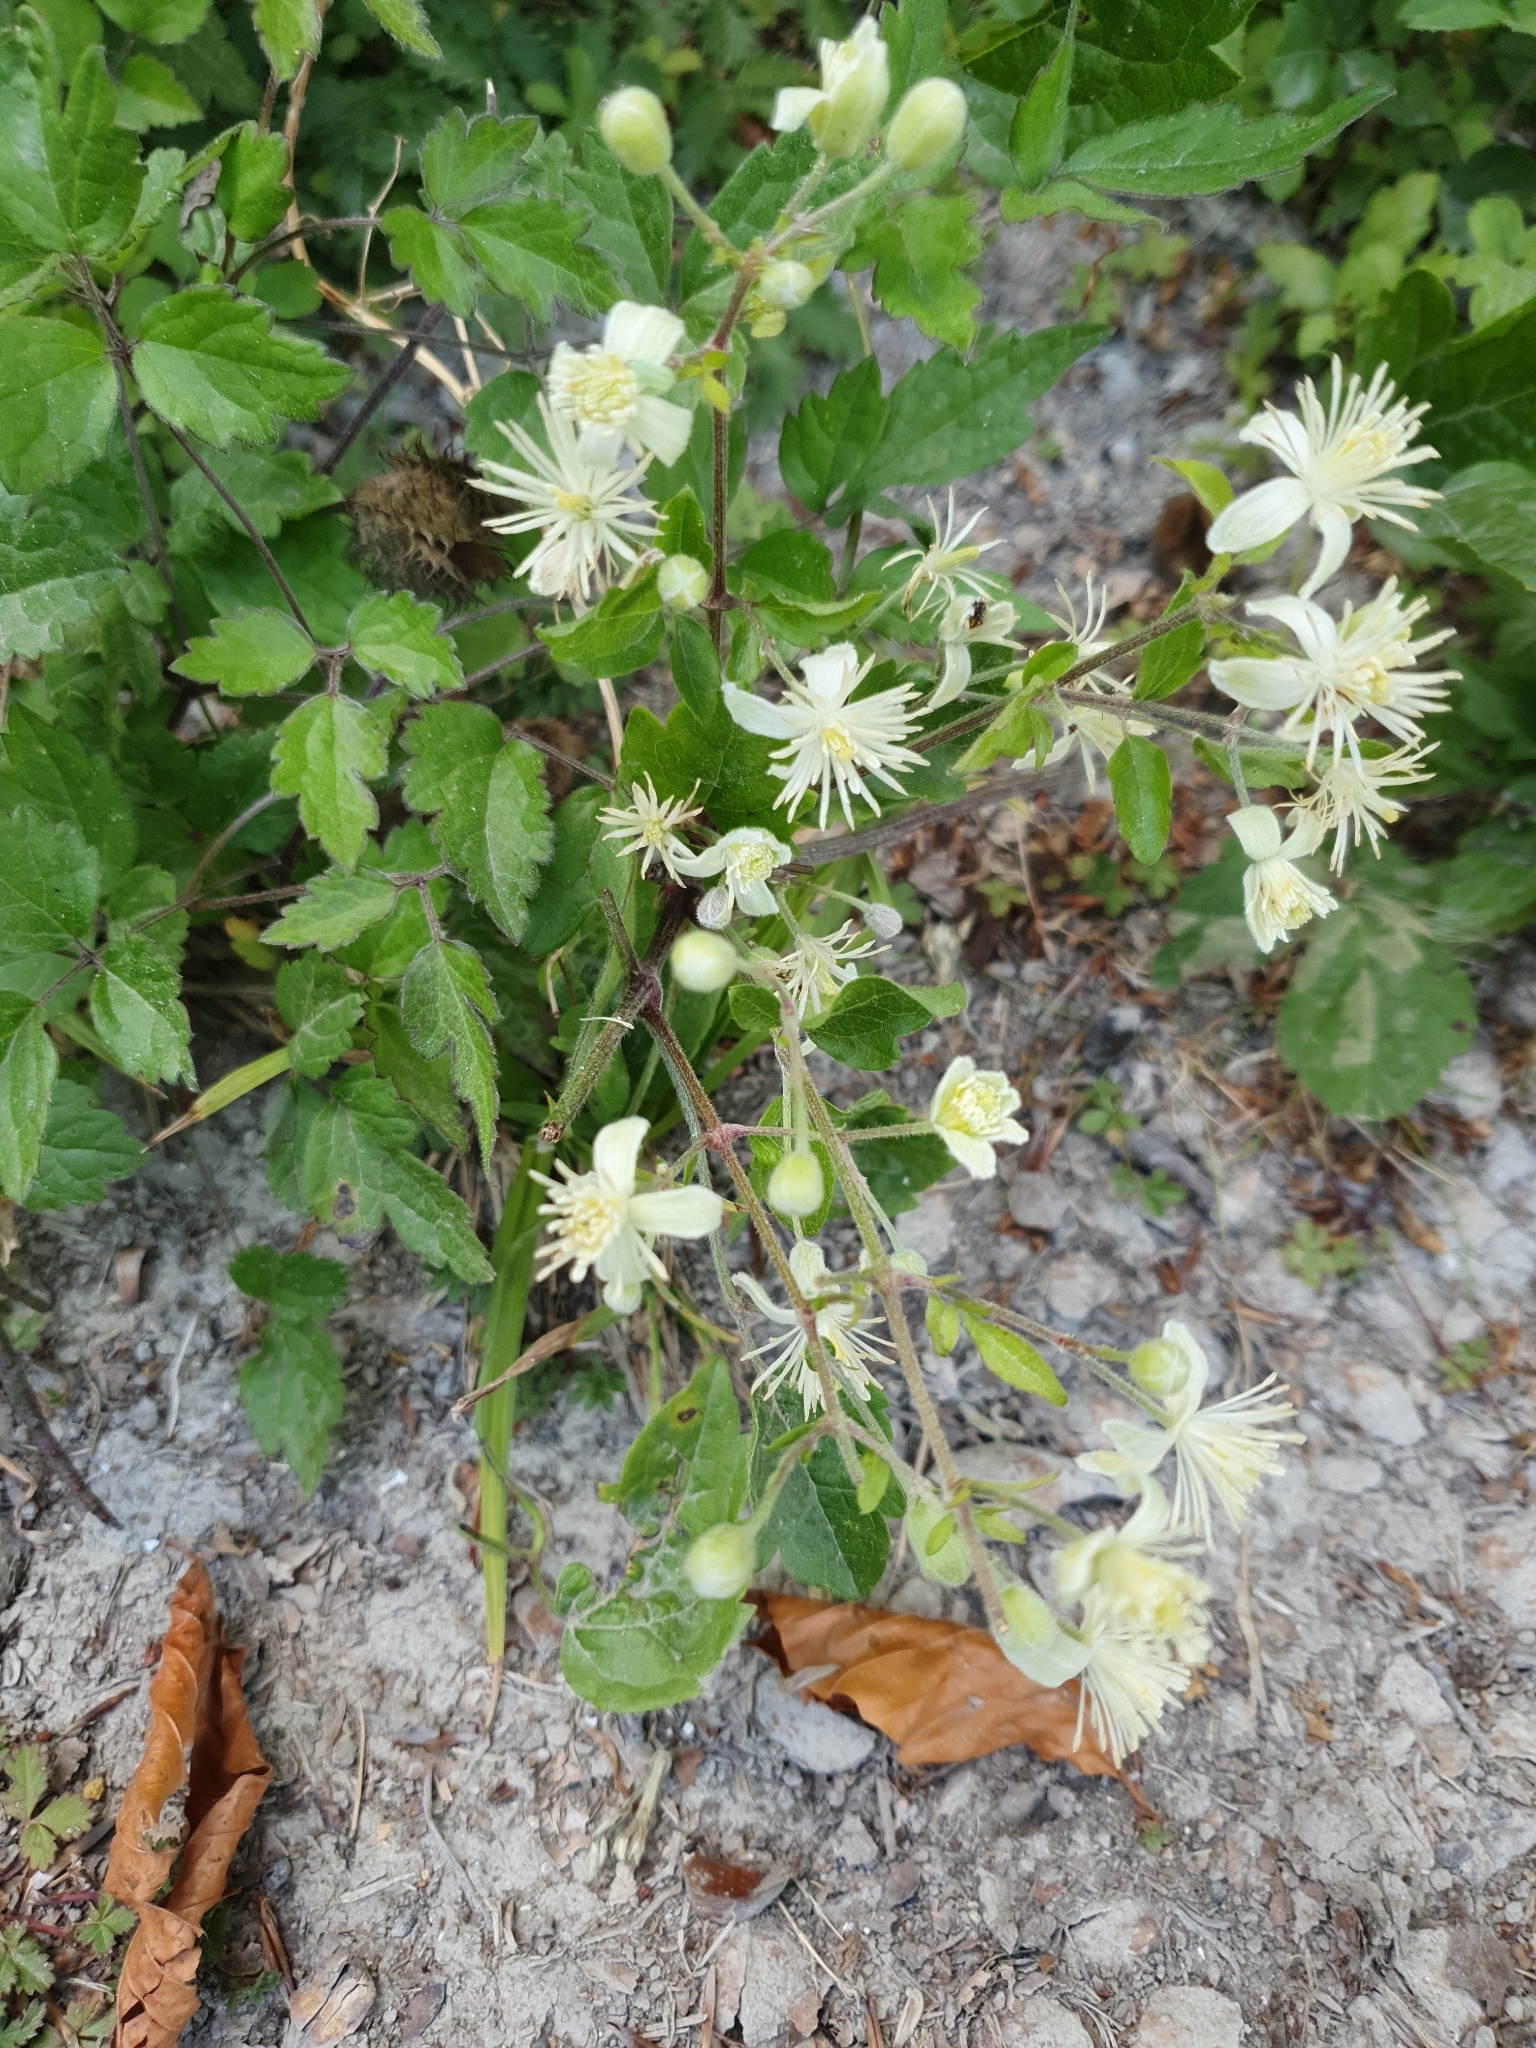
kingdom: Plantae
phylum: Tracheophyta
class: Magnoliopsida
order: Ranunculales
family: Ranunculaceae
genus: Clematis
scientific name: Clematis vitalba
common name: Evergreen clematis
